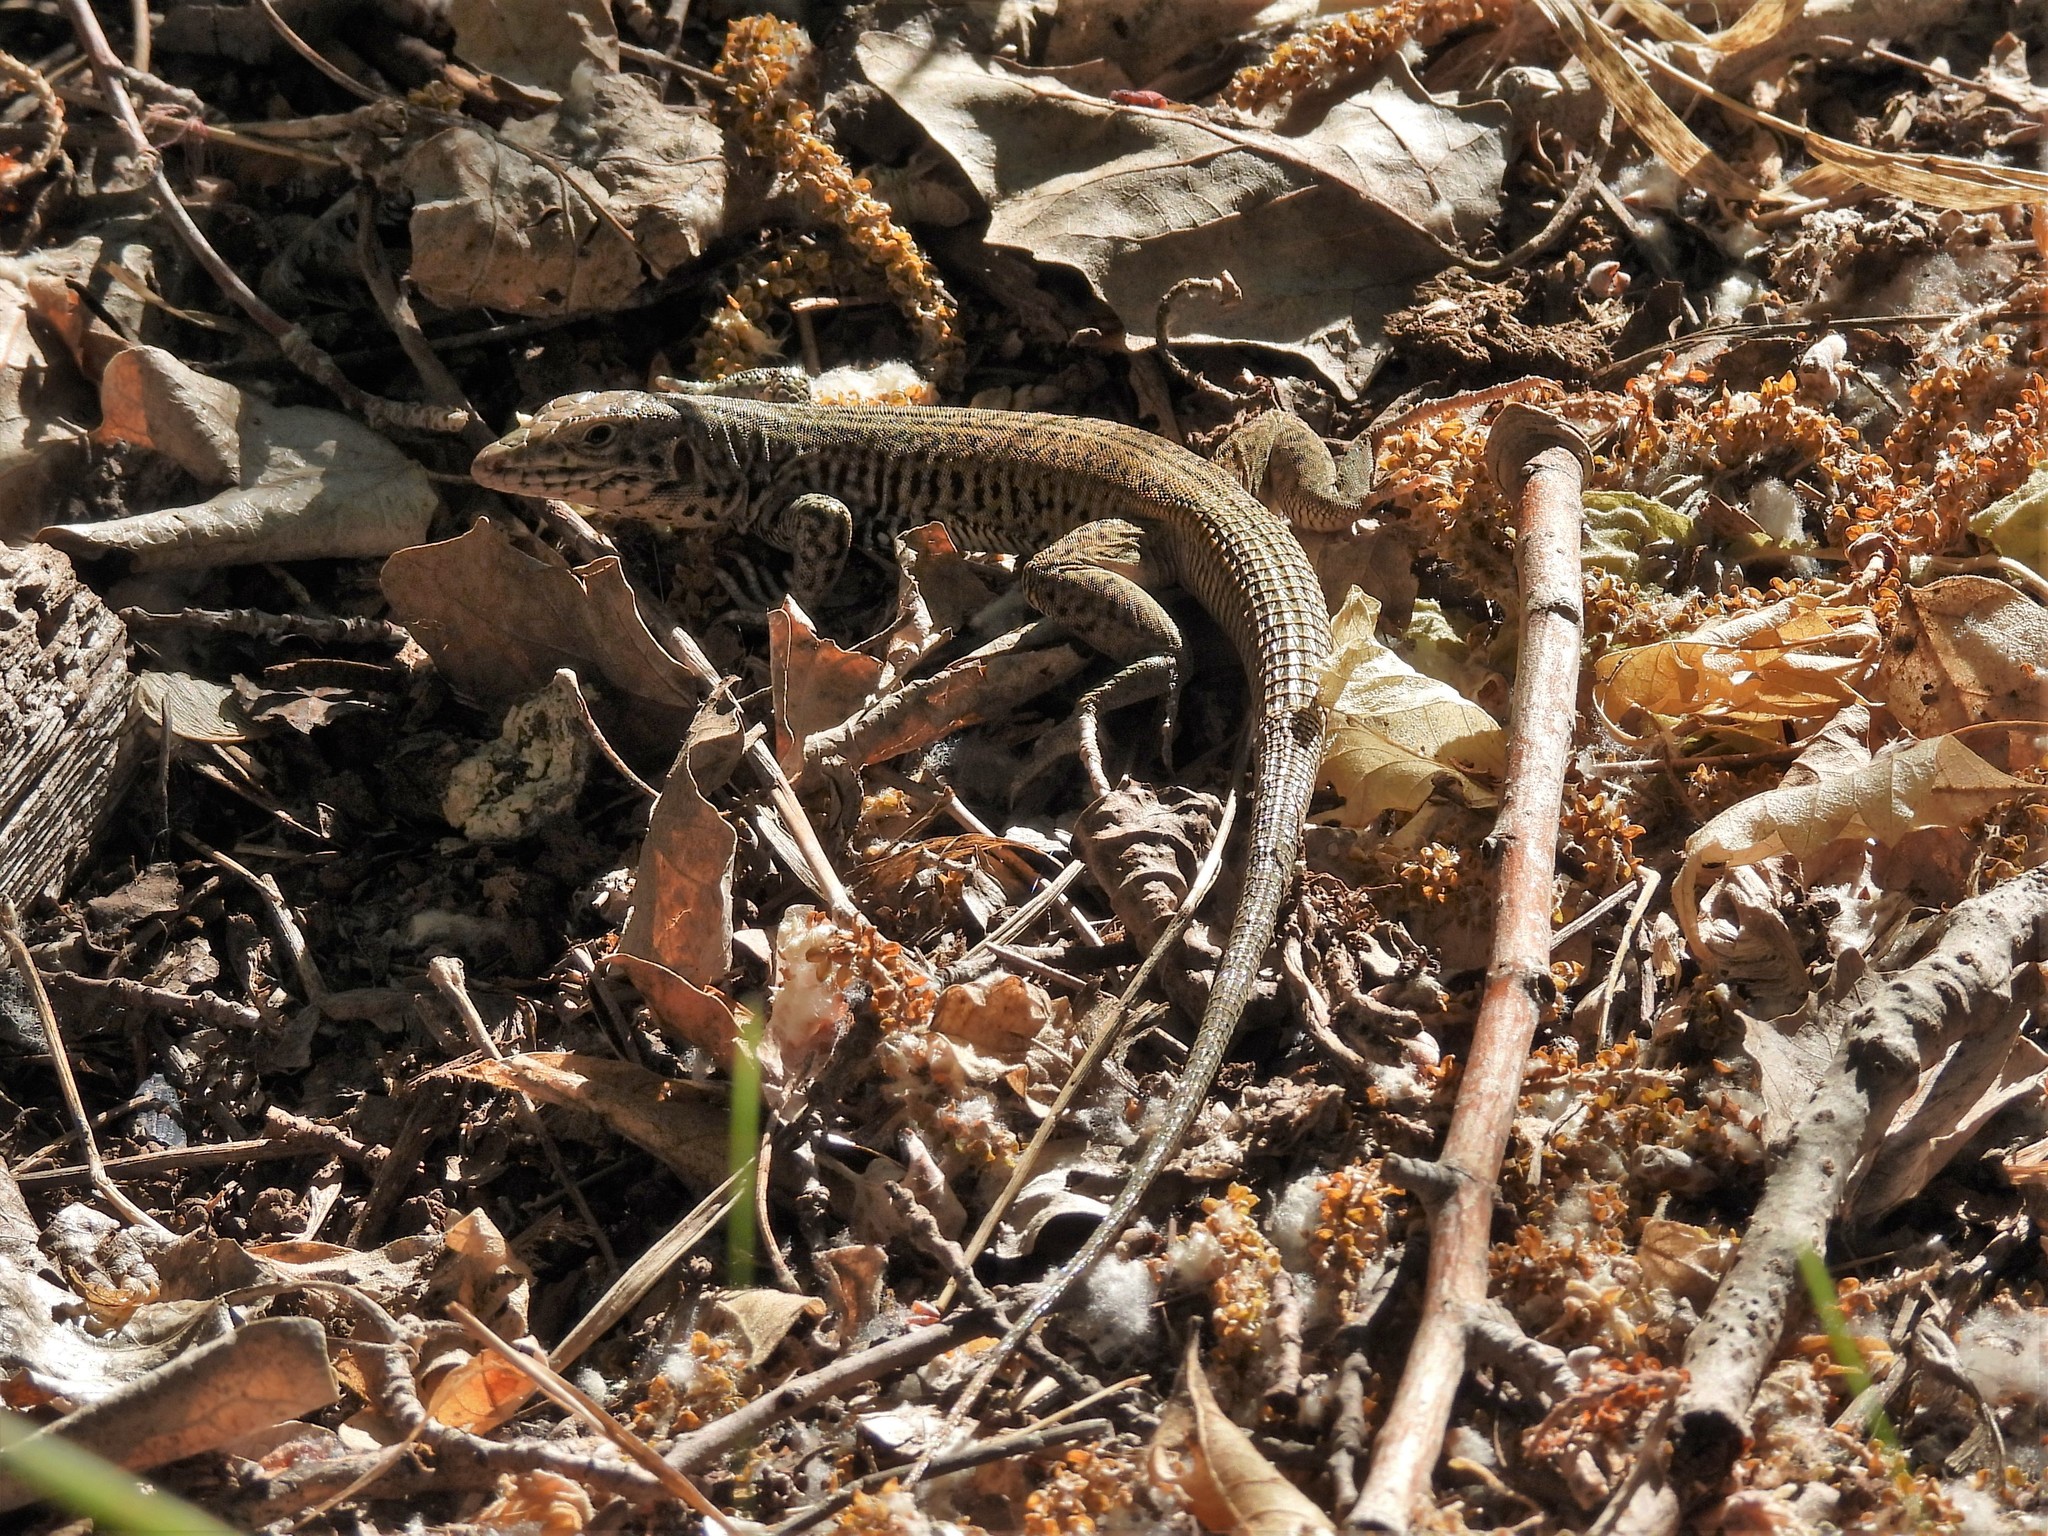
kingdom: Animalia
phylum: Chordata
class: Squamata
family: Teiidae
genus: Aspidoscelis
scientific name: Aspidoscelis tigris
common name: Tiger whiptail
